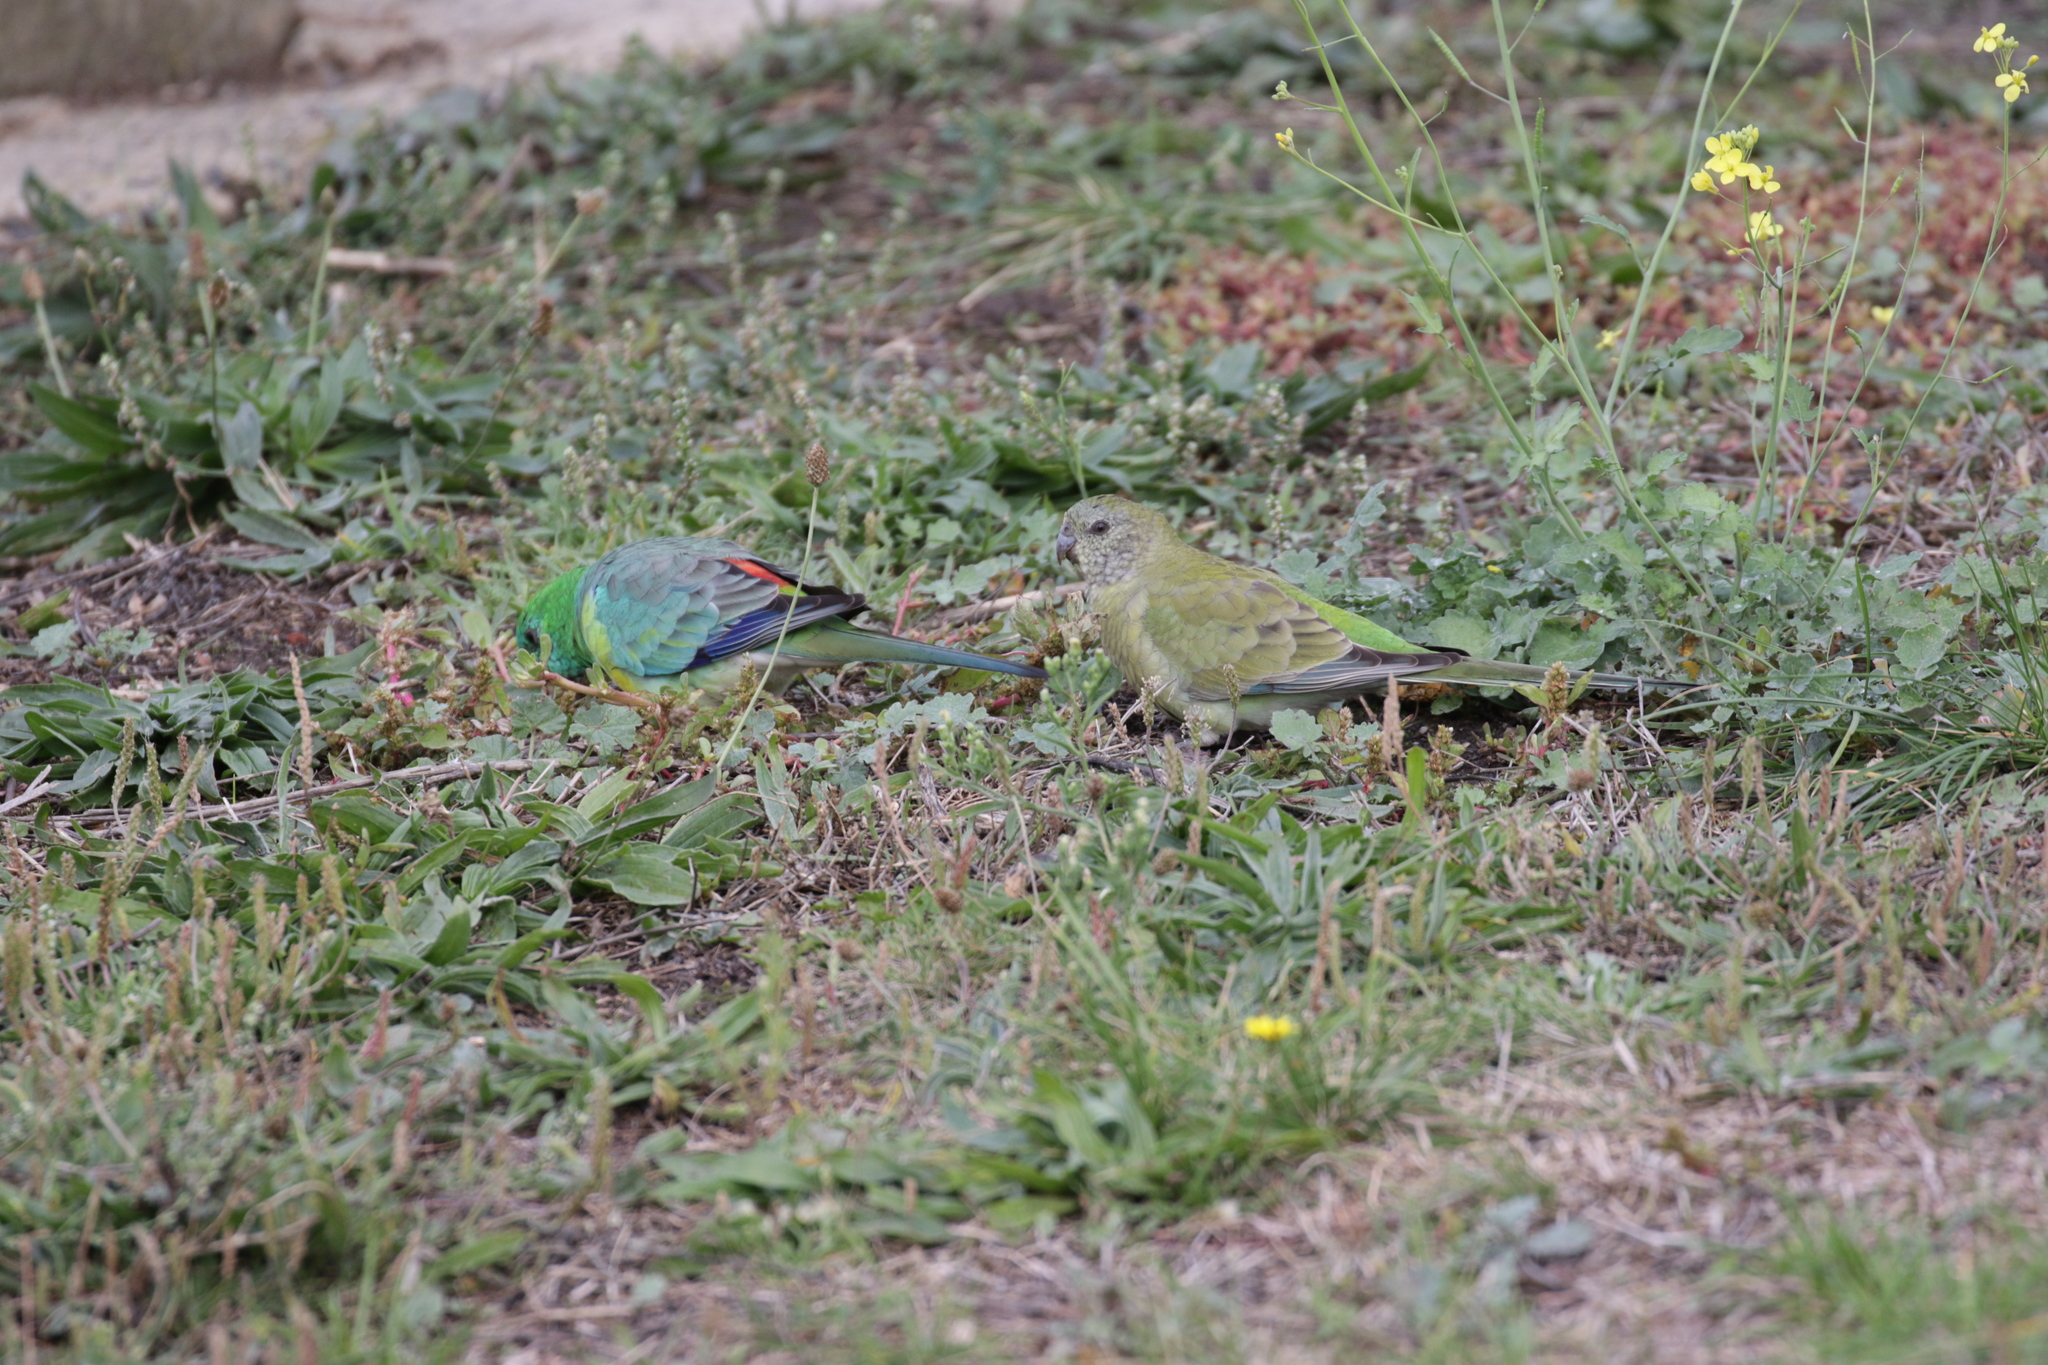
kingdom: Animalia
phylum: Chordata
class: Aves
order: Psittaciformes
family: Psittacidae
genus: Psephotus
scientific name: Psephotus haematonotus
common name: Red-rumped parrot
